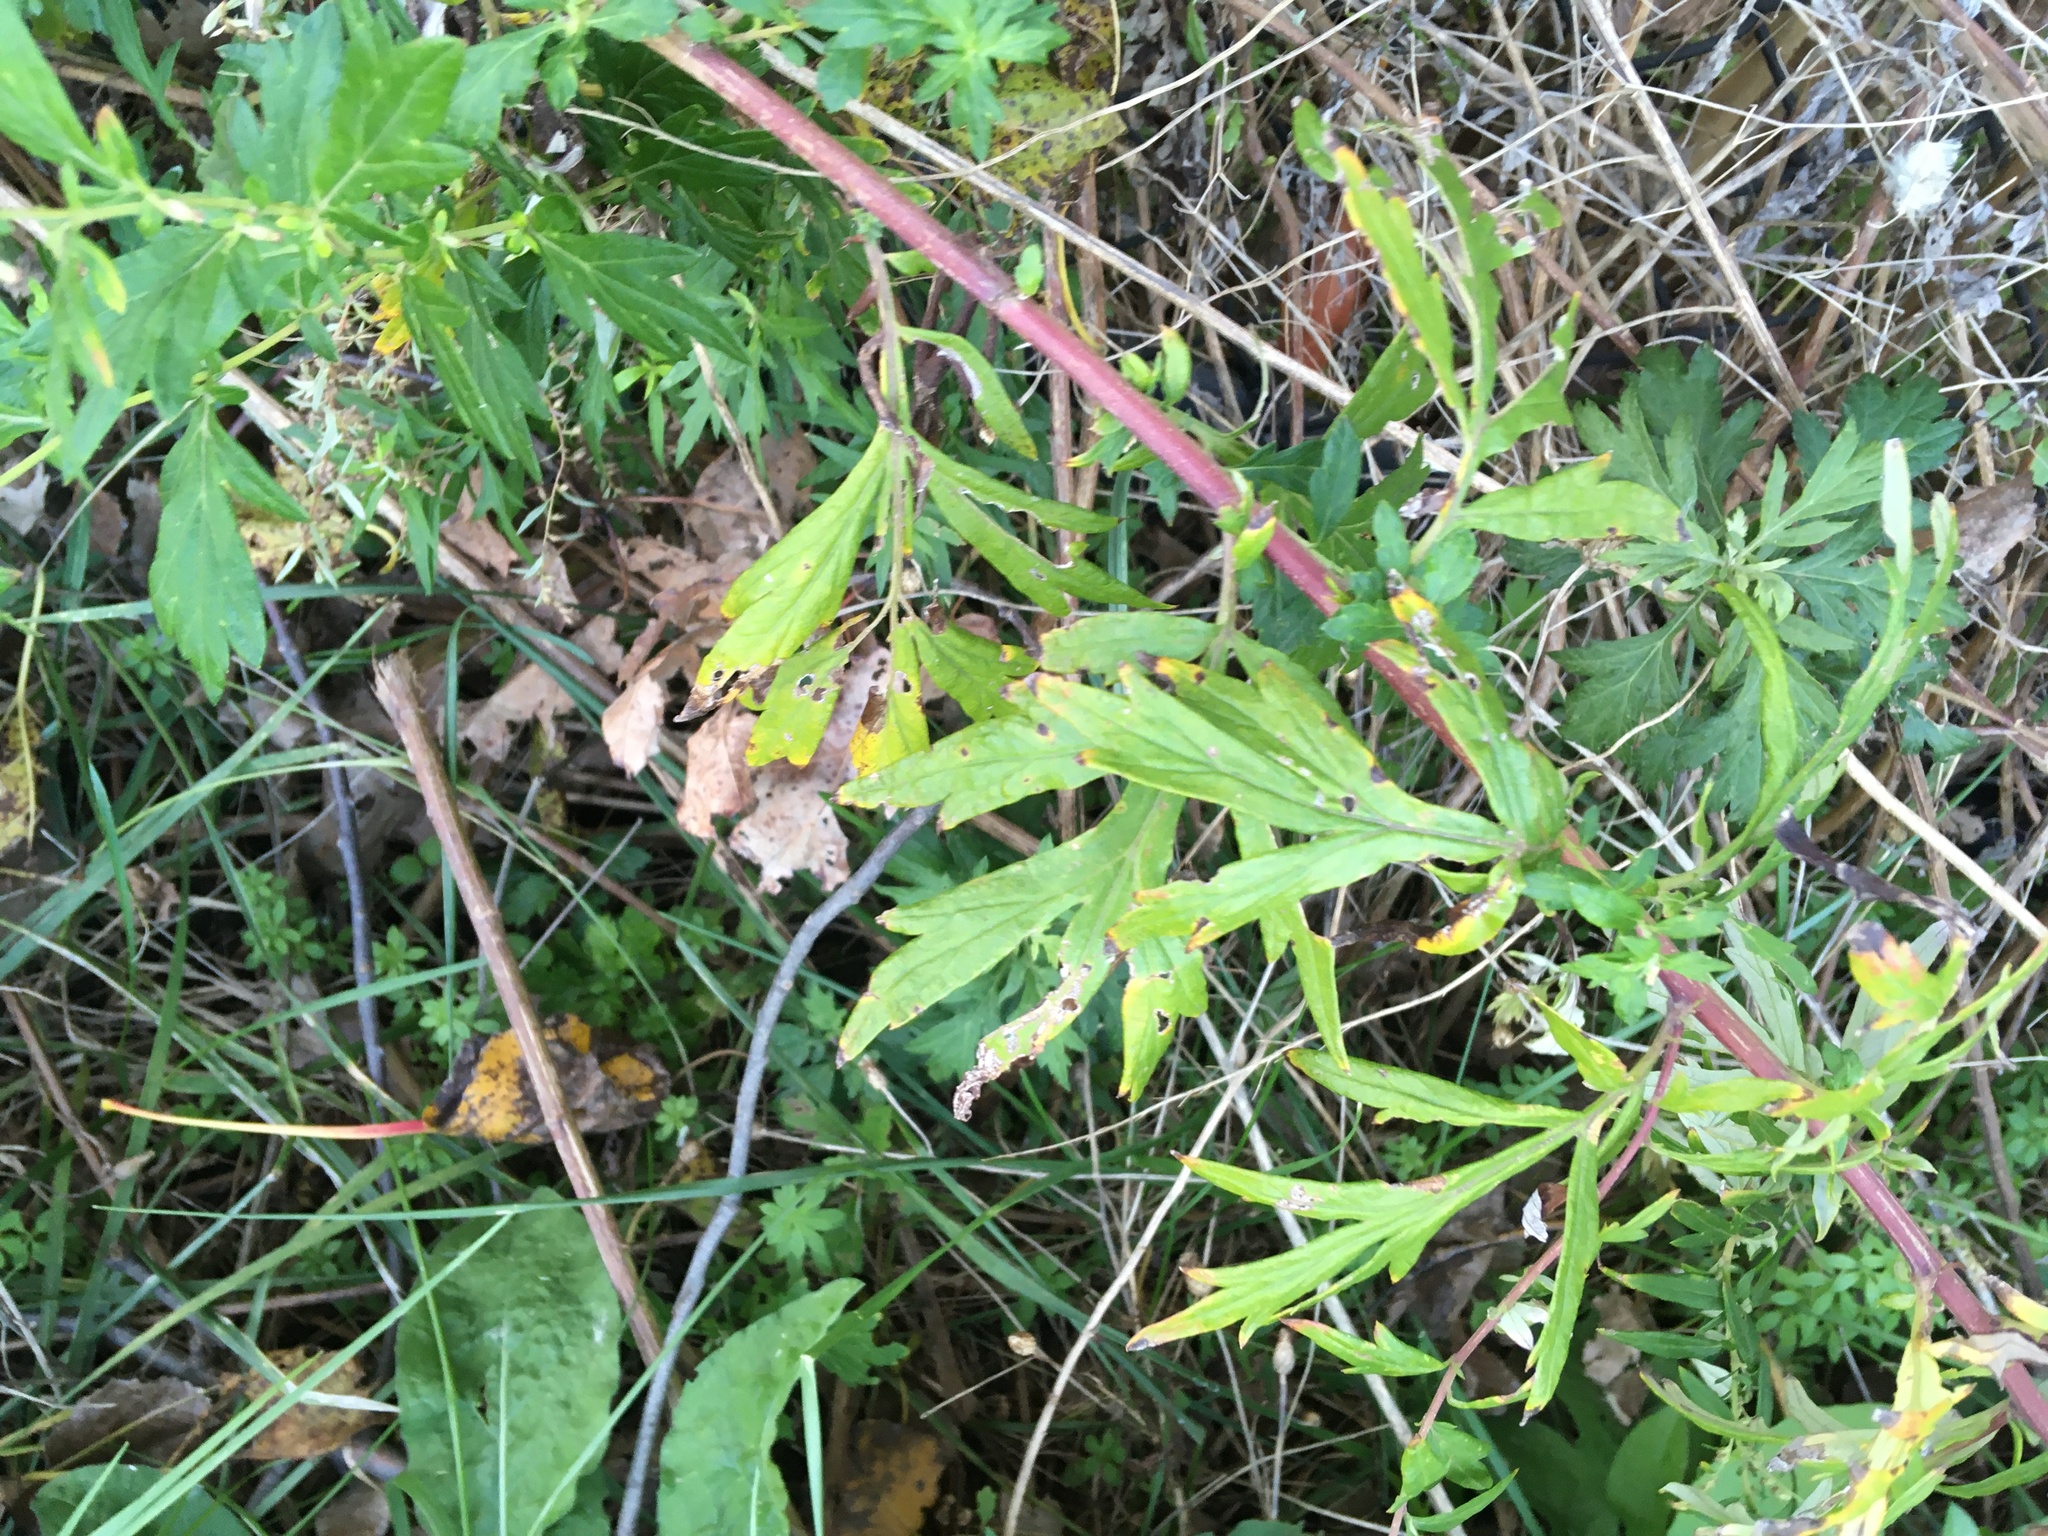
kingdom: Plantae
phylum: Tracheophyta
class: Magnoliopsida
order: Asterales
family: Asteraceae
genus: Artemisia
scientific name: Artemisia vulgaris
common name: Mugwort
